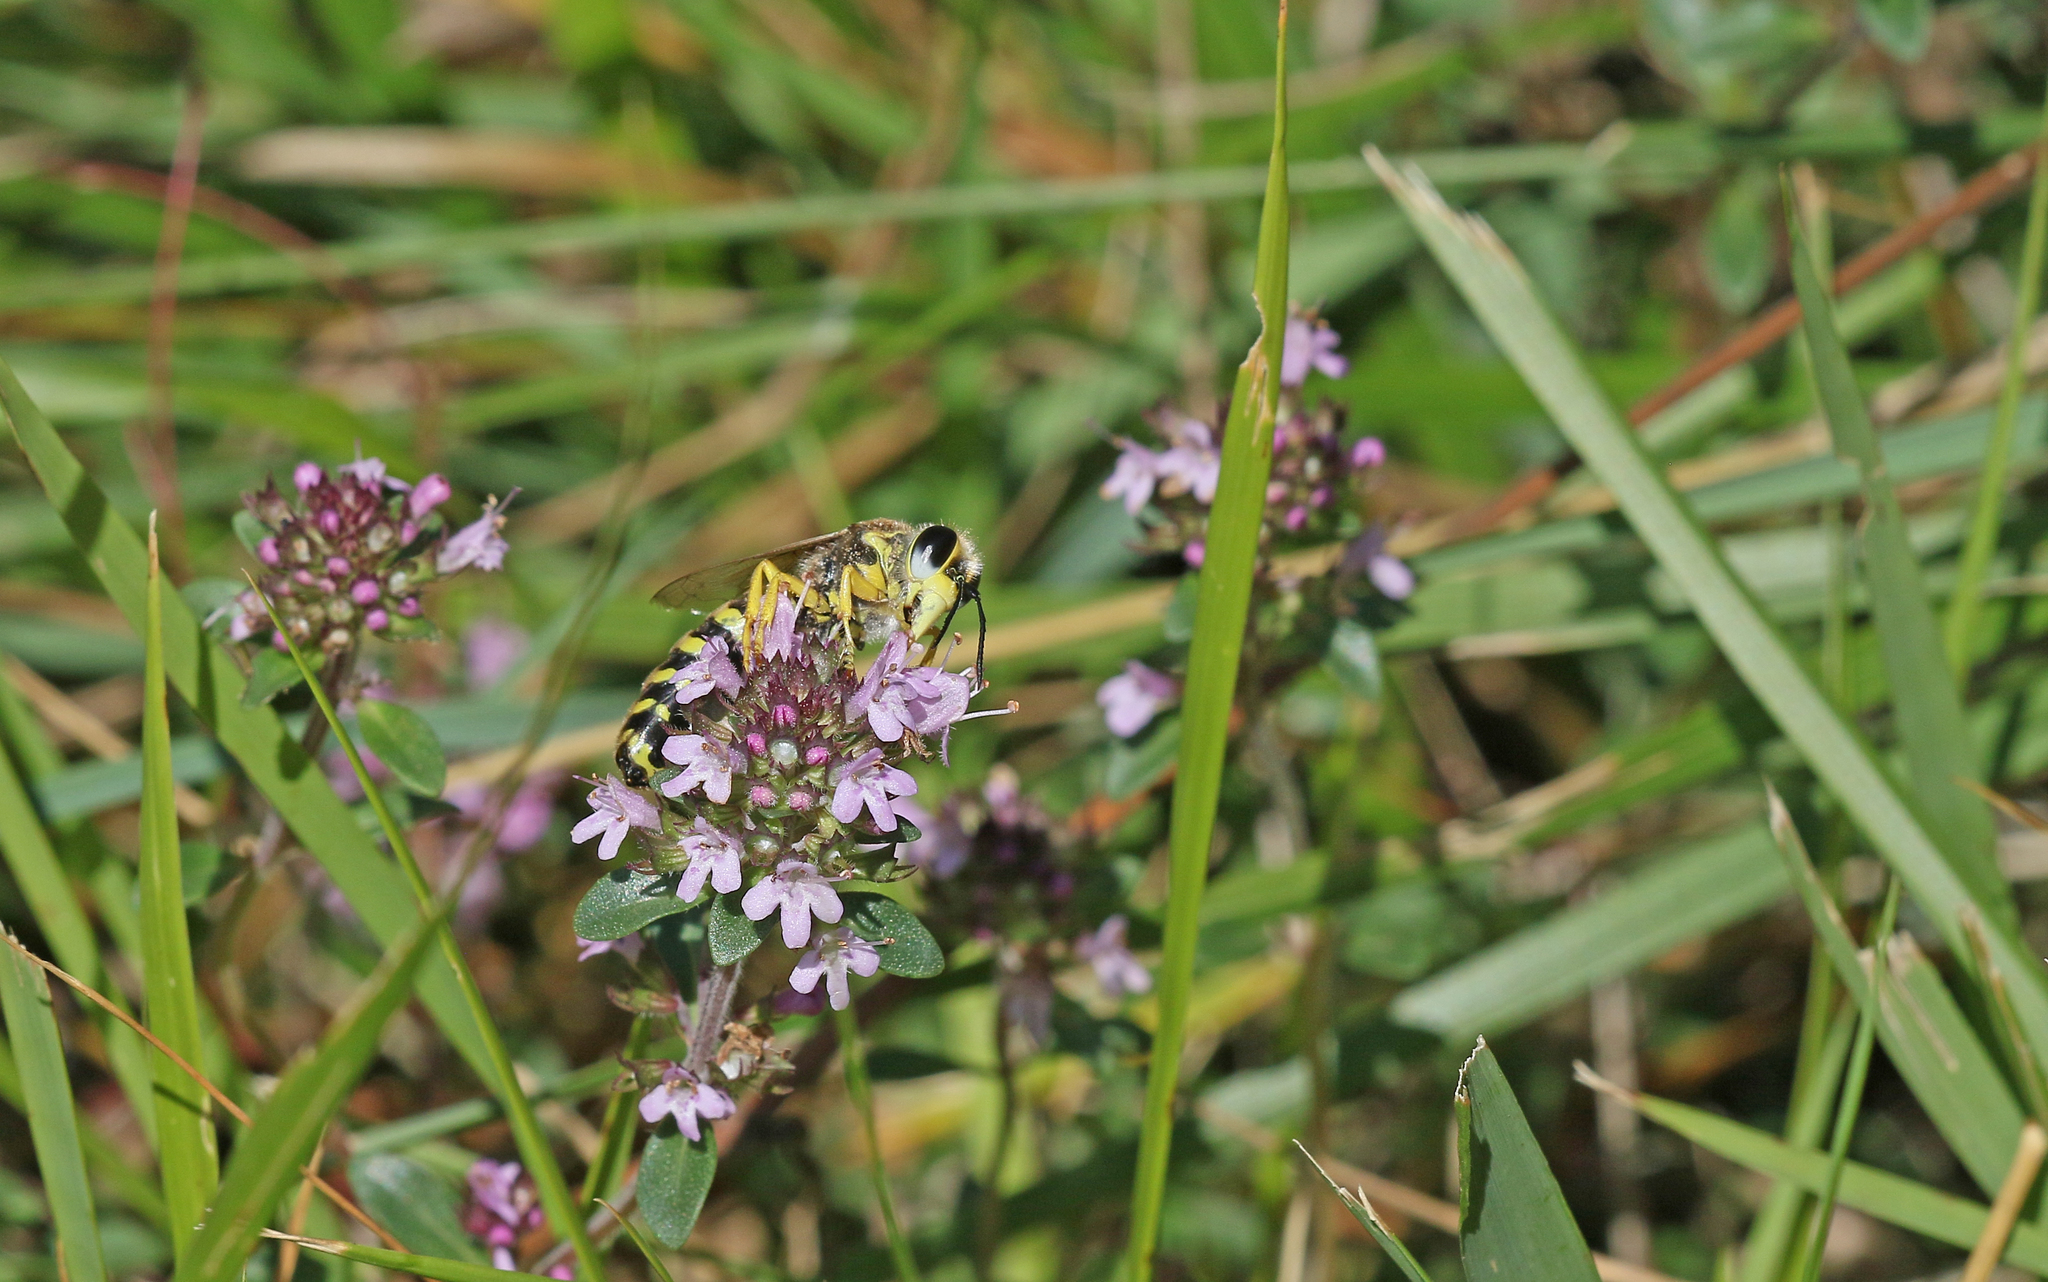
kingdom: Animalia
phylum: Arthropoda
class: Insecta
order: Hymenoptera
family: Crabronidae
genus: Bembix
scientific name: Bembix tarsata
